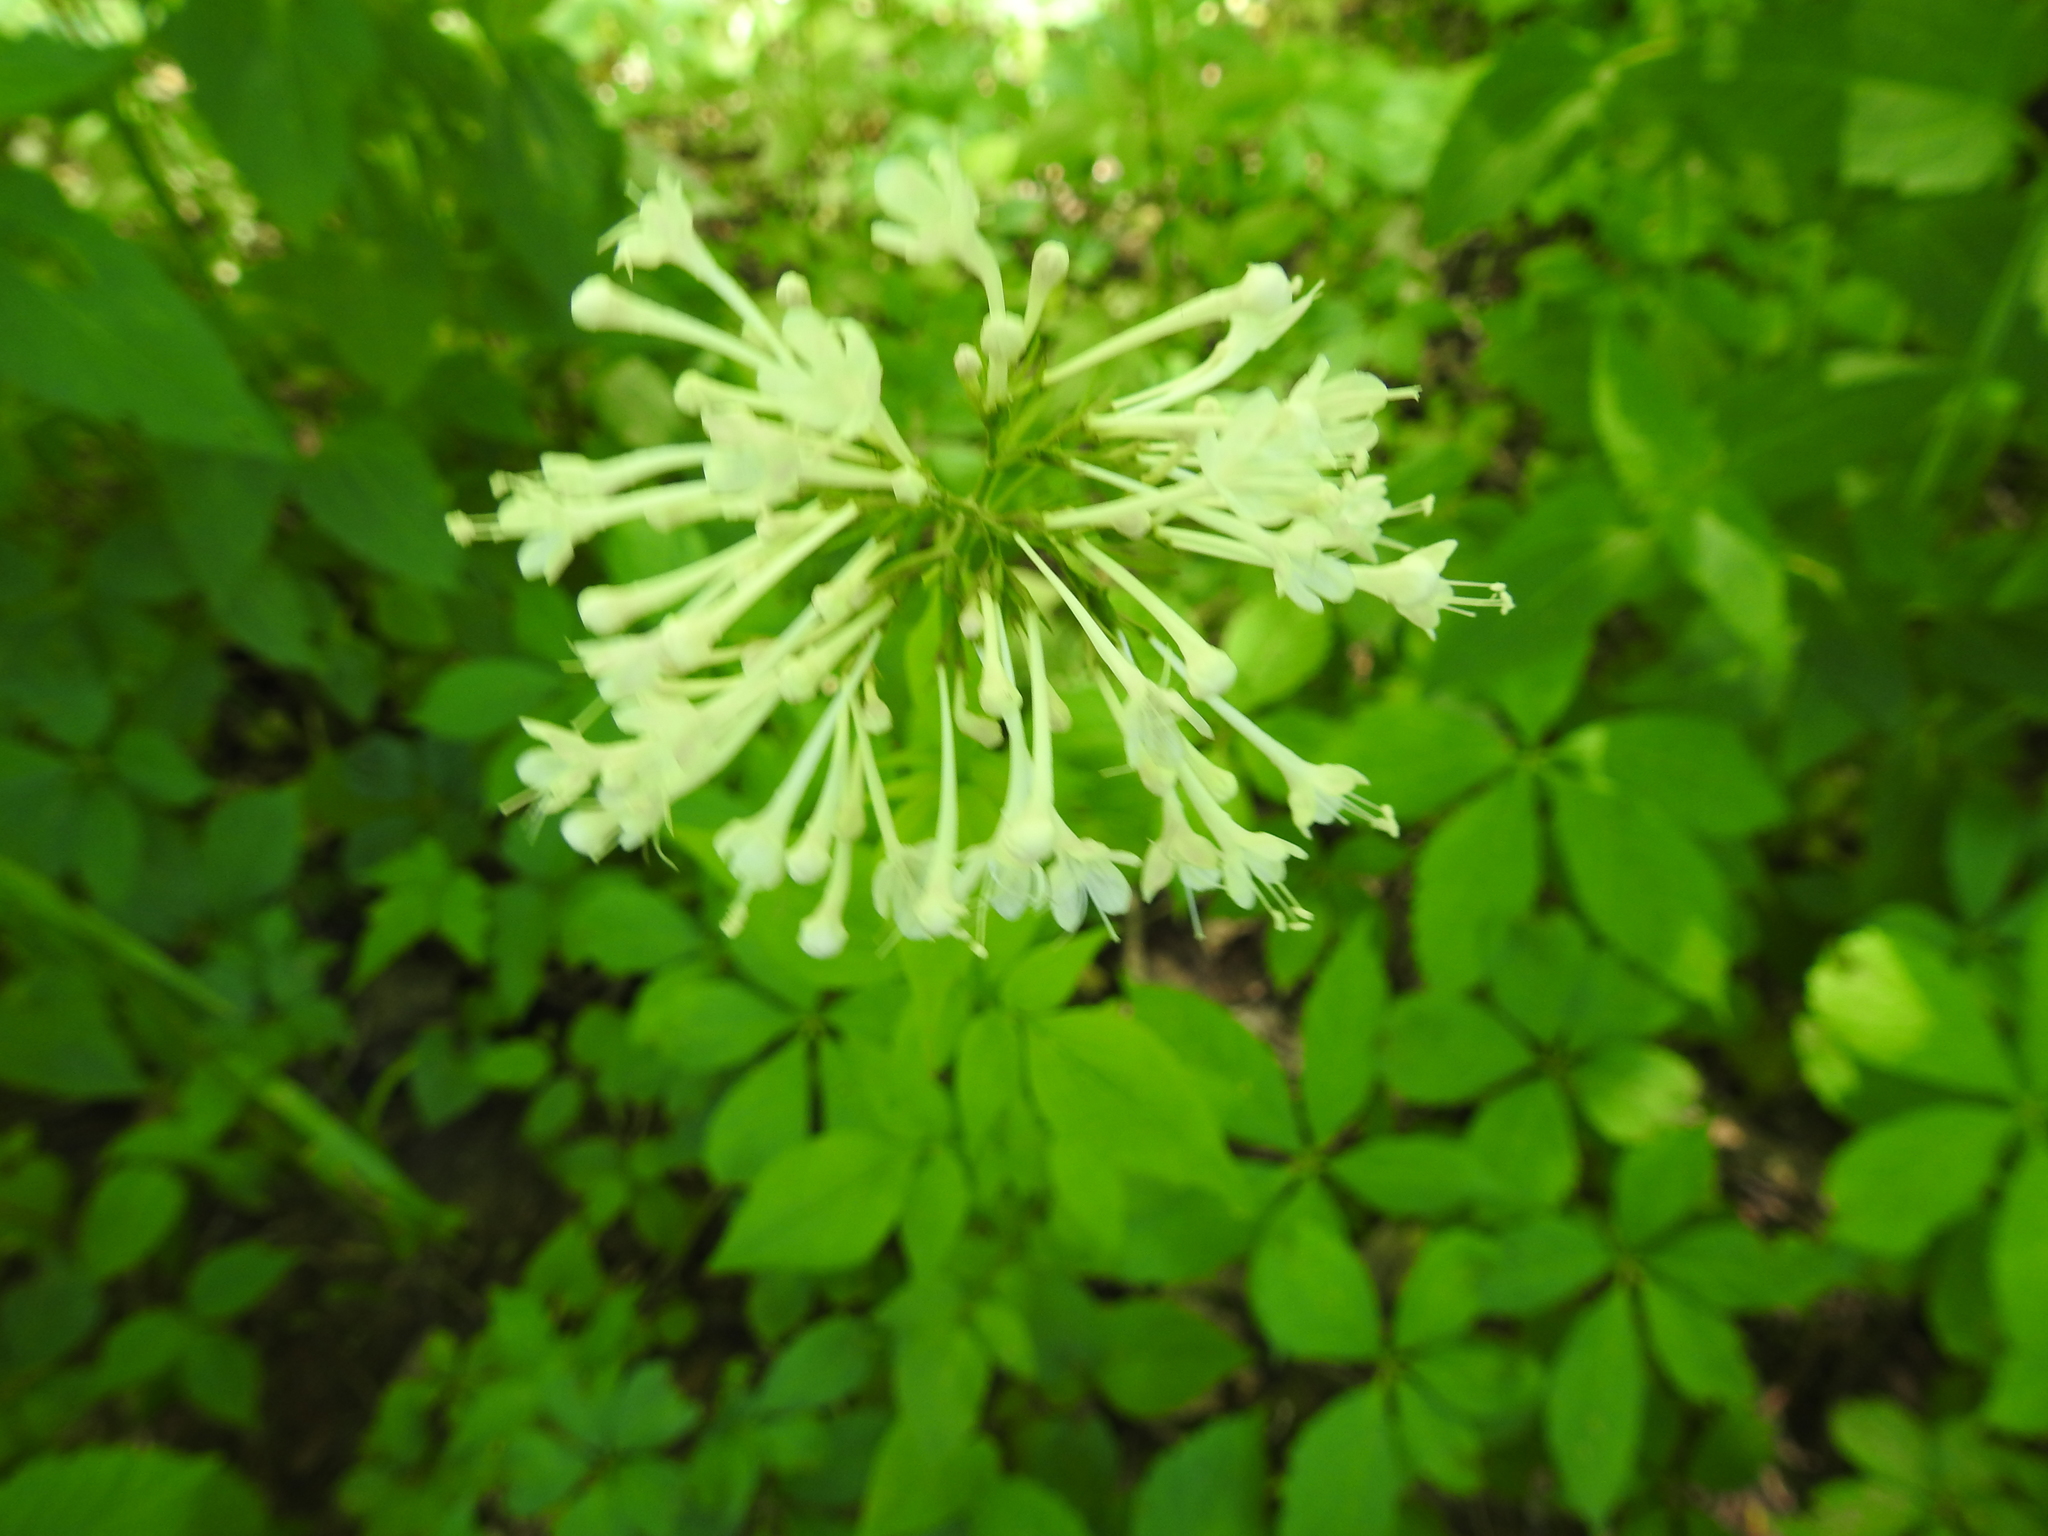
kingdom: Plantae
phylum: Tracheophyta
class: Magnoliopsida
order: Dipsacales
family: Caprifoliaceae
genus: Valeriana
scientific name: Valeriana pauciflora
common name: Long-tube valeriana
